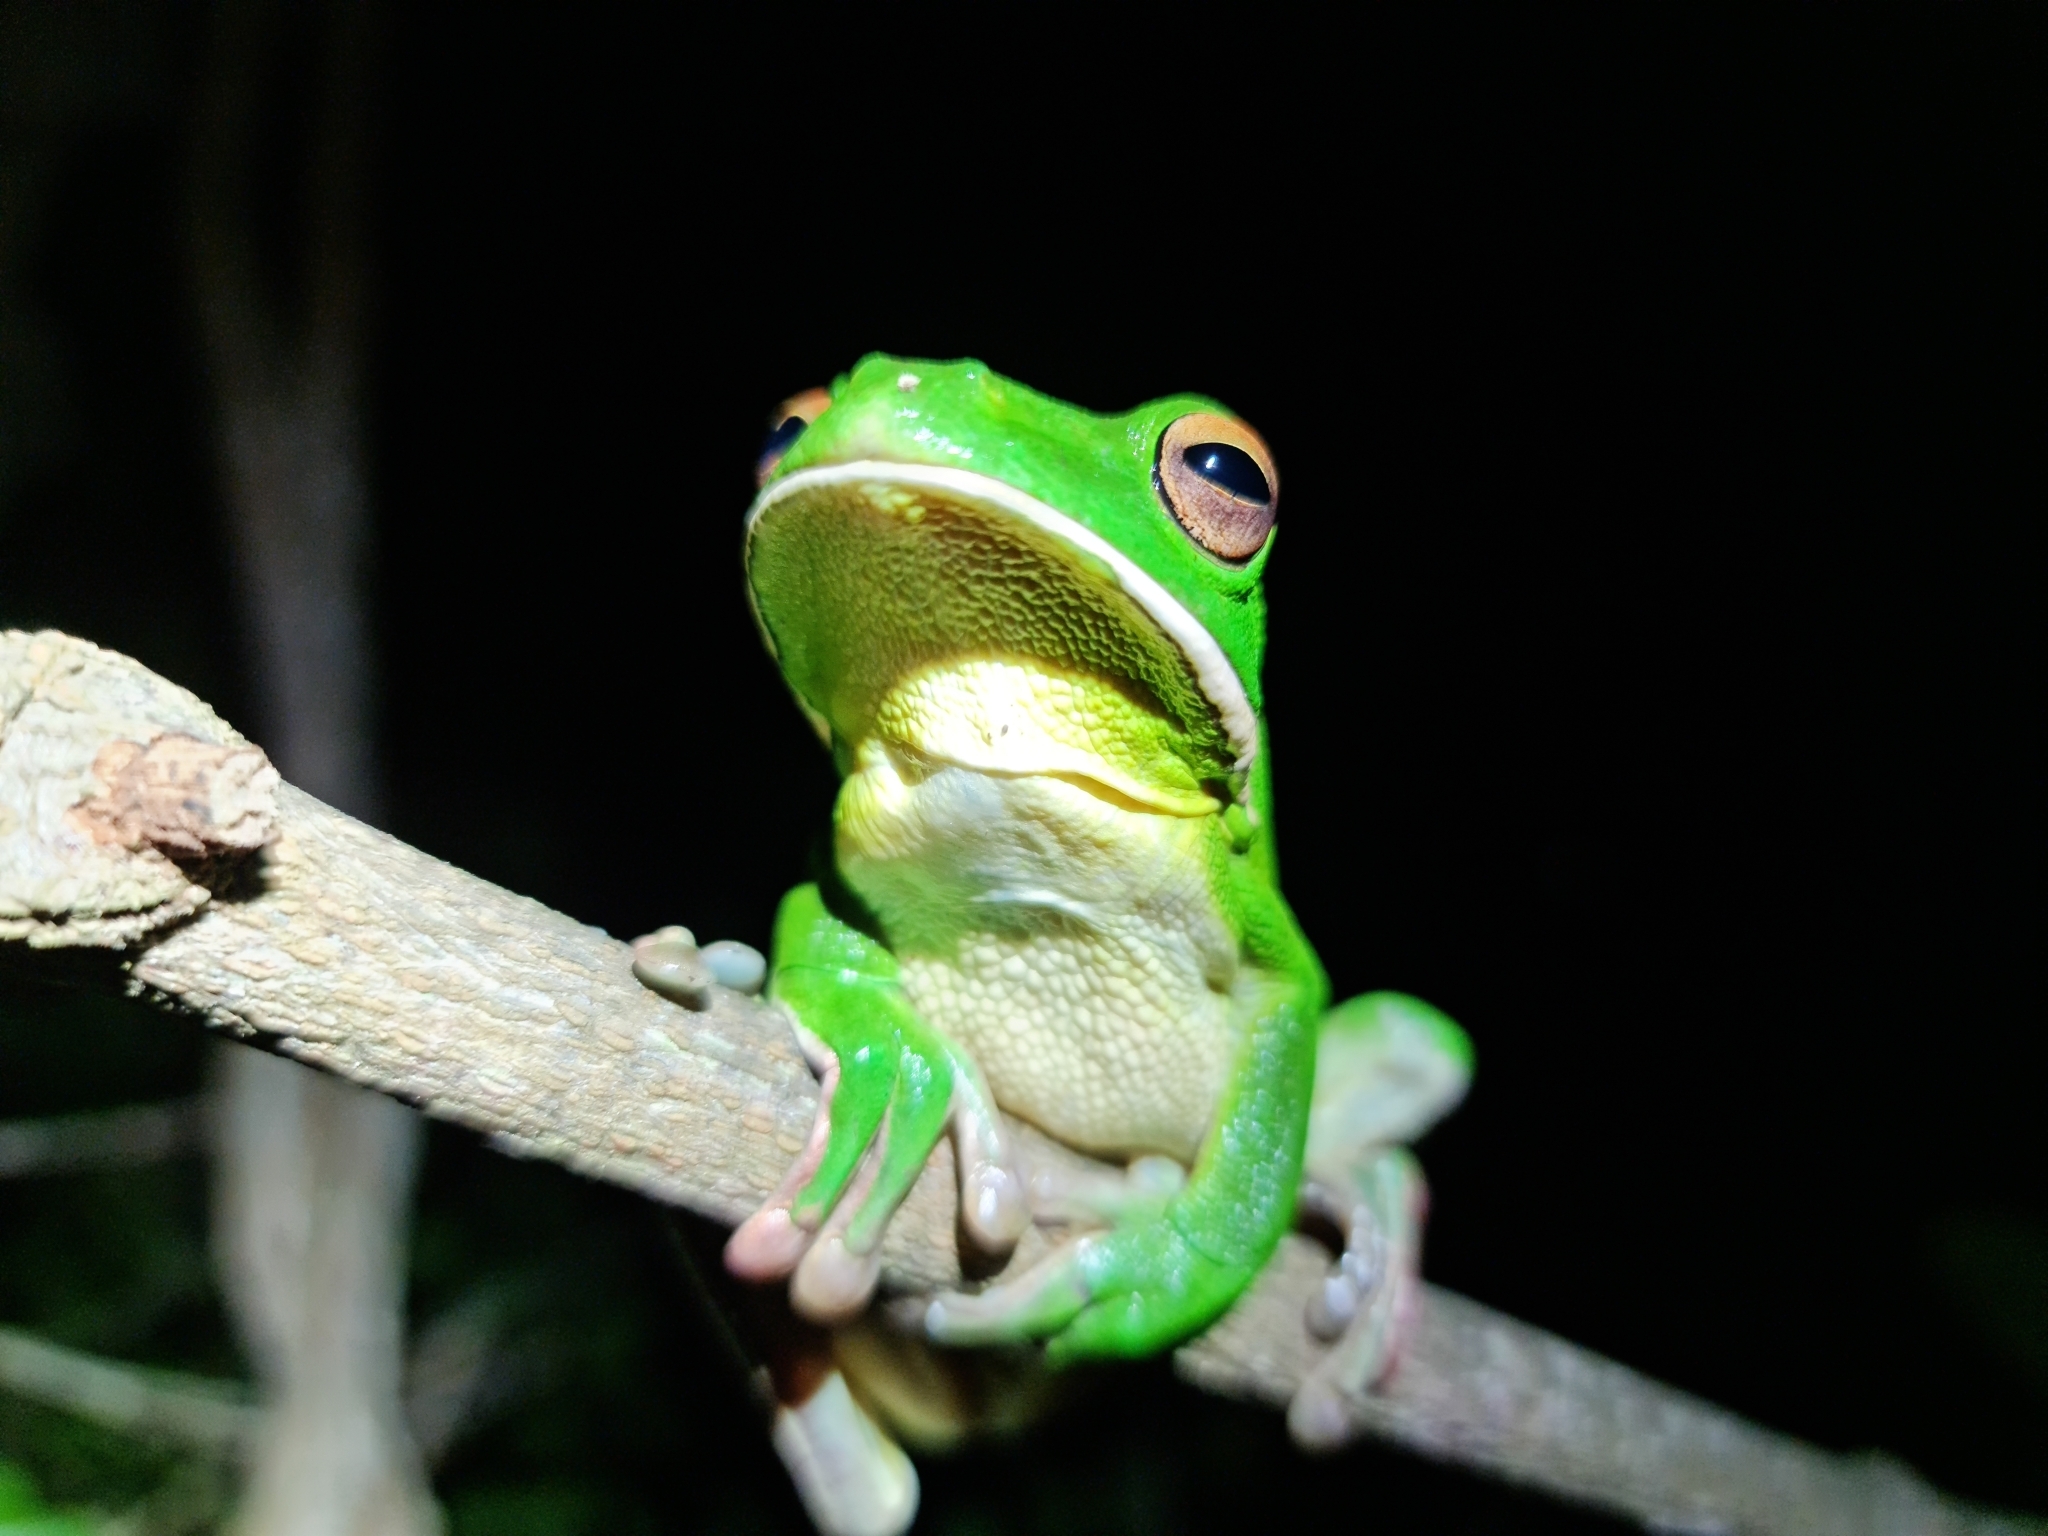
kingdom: Animalia
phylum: Chordata
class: Amphibia
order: Anura
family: Pelodryadidae
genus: Nyctimystes
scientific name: Nyctimystes infrafrenatus
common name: Australian giant treefrog
